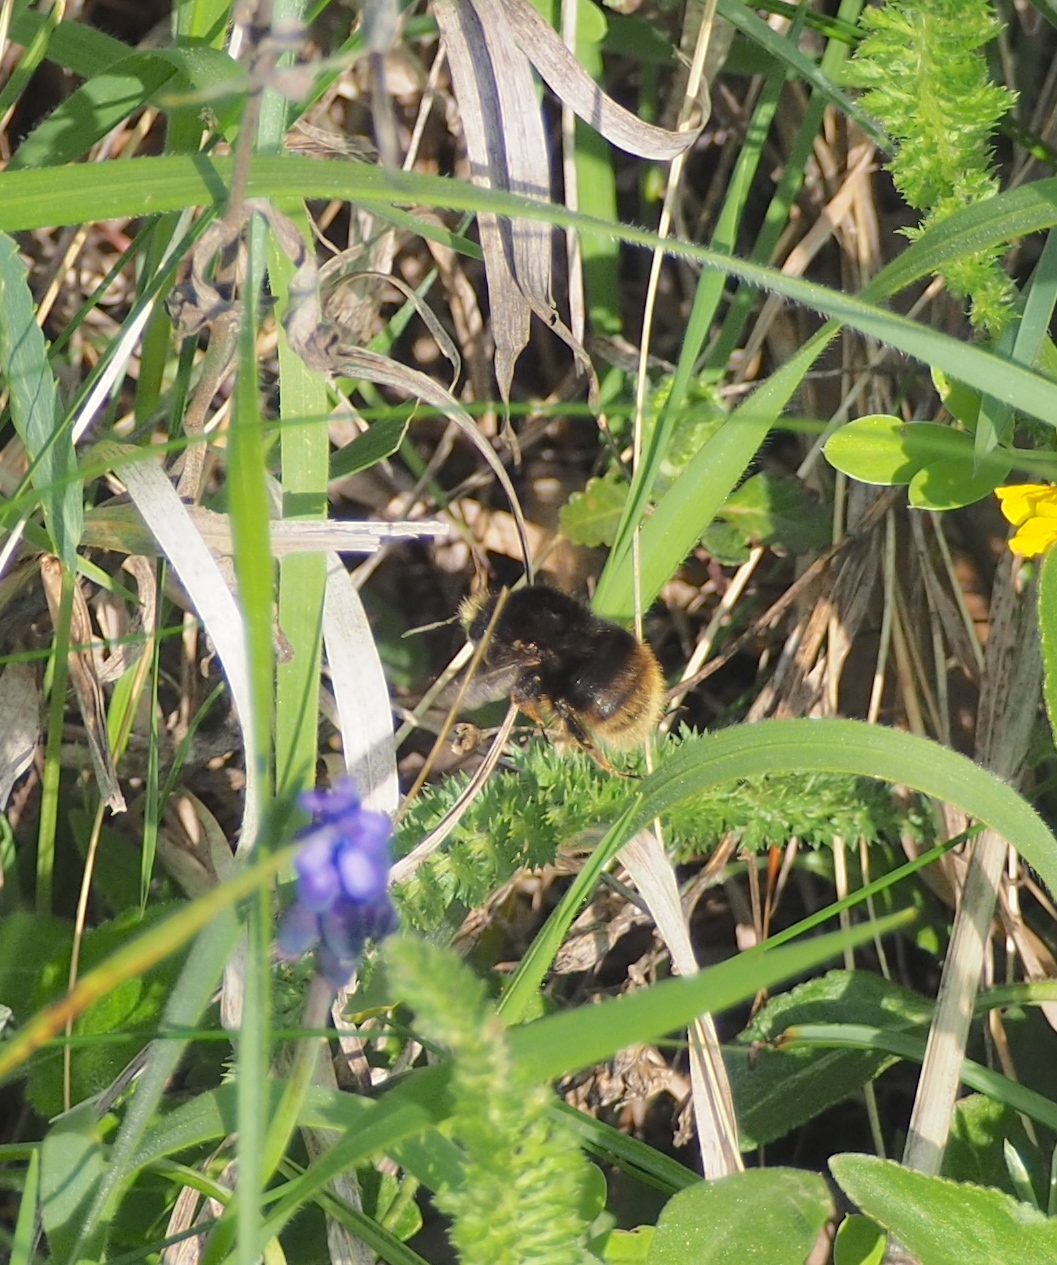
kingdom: Animalia
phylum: Arthropoda
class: Insecta
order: Hymenoptera
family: Apidae
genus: Bombus
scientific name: Bombus humilis
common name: Brown-banded carder-bee
